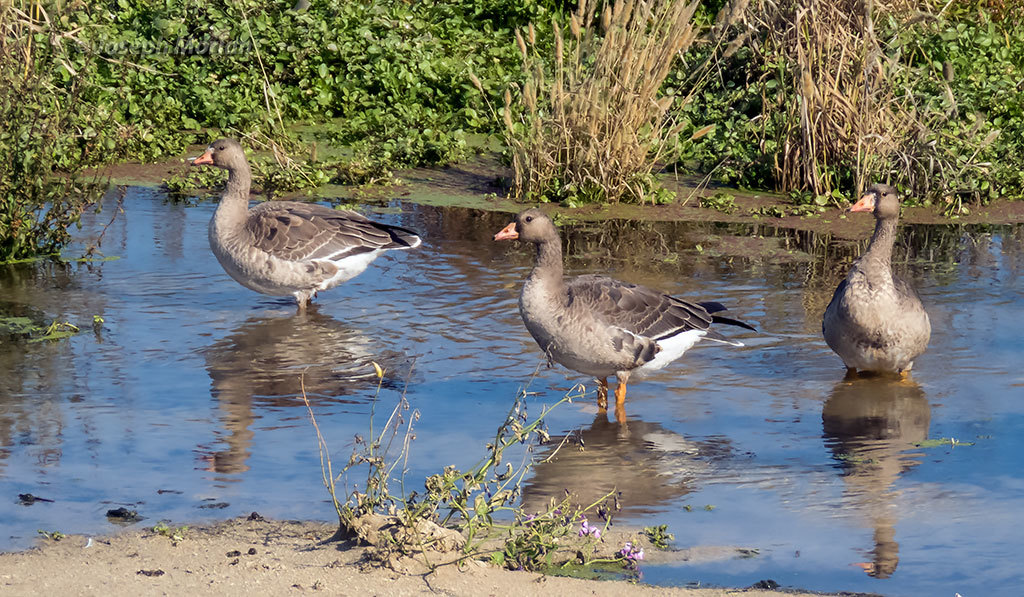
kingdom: Animalia
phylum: Chordata
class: Aves
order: Anseriformes
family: Anatidae
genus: Anser
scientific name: Anser albifrons
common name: Greater white-fronted goose
